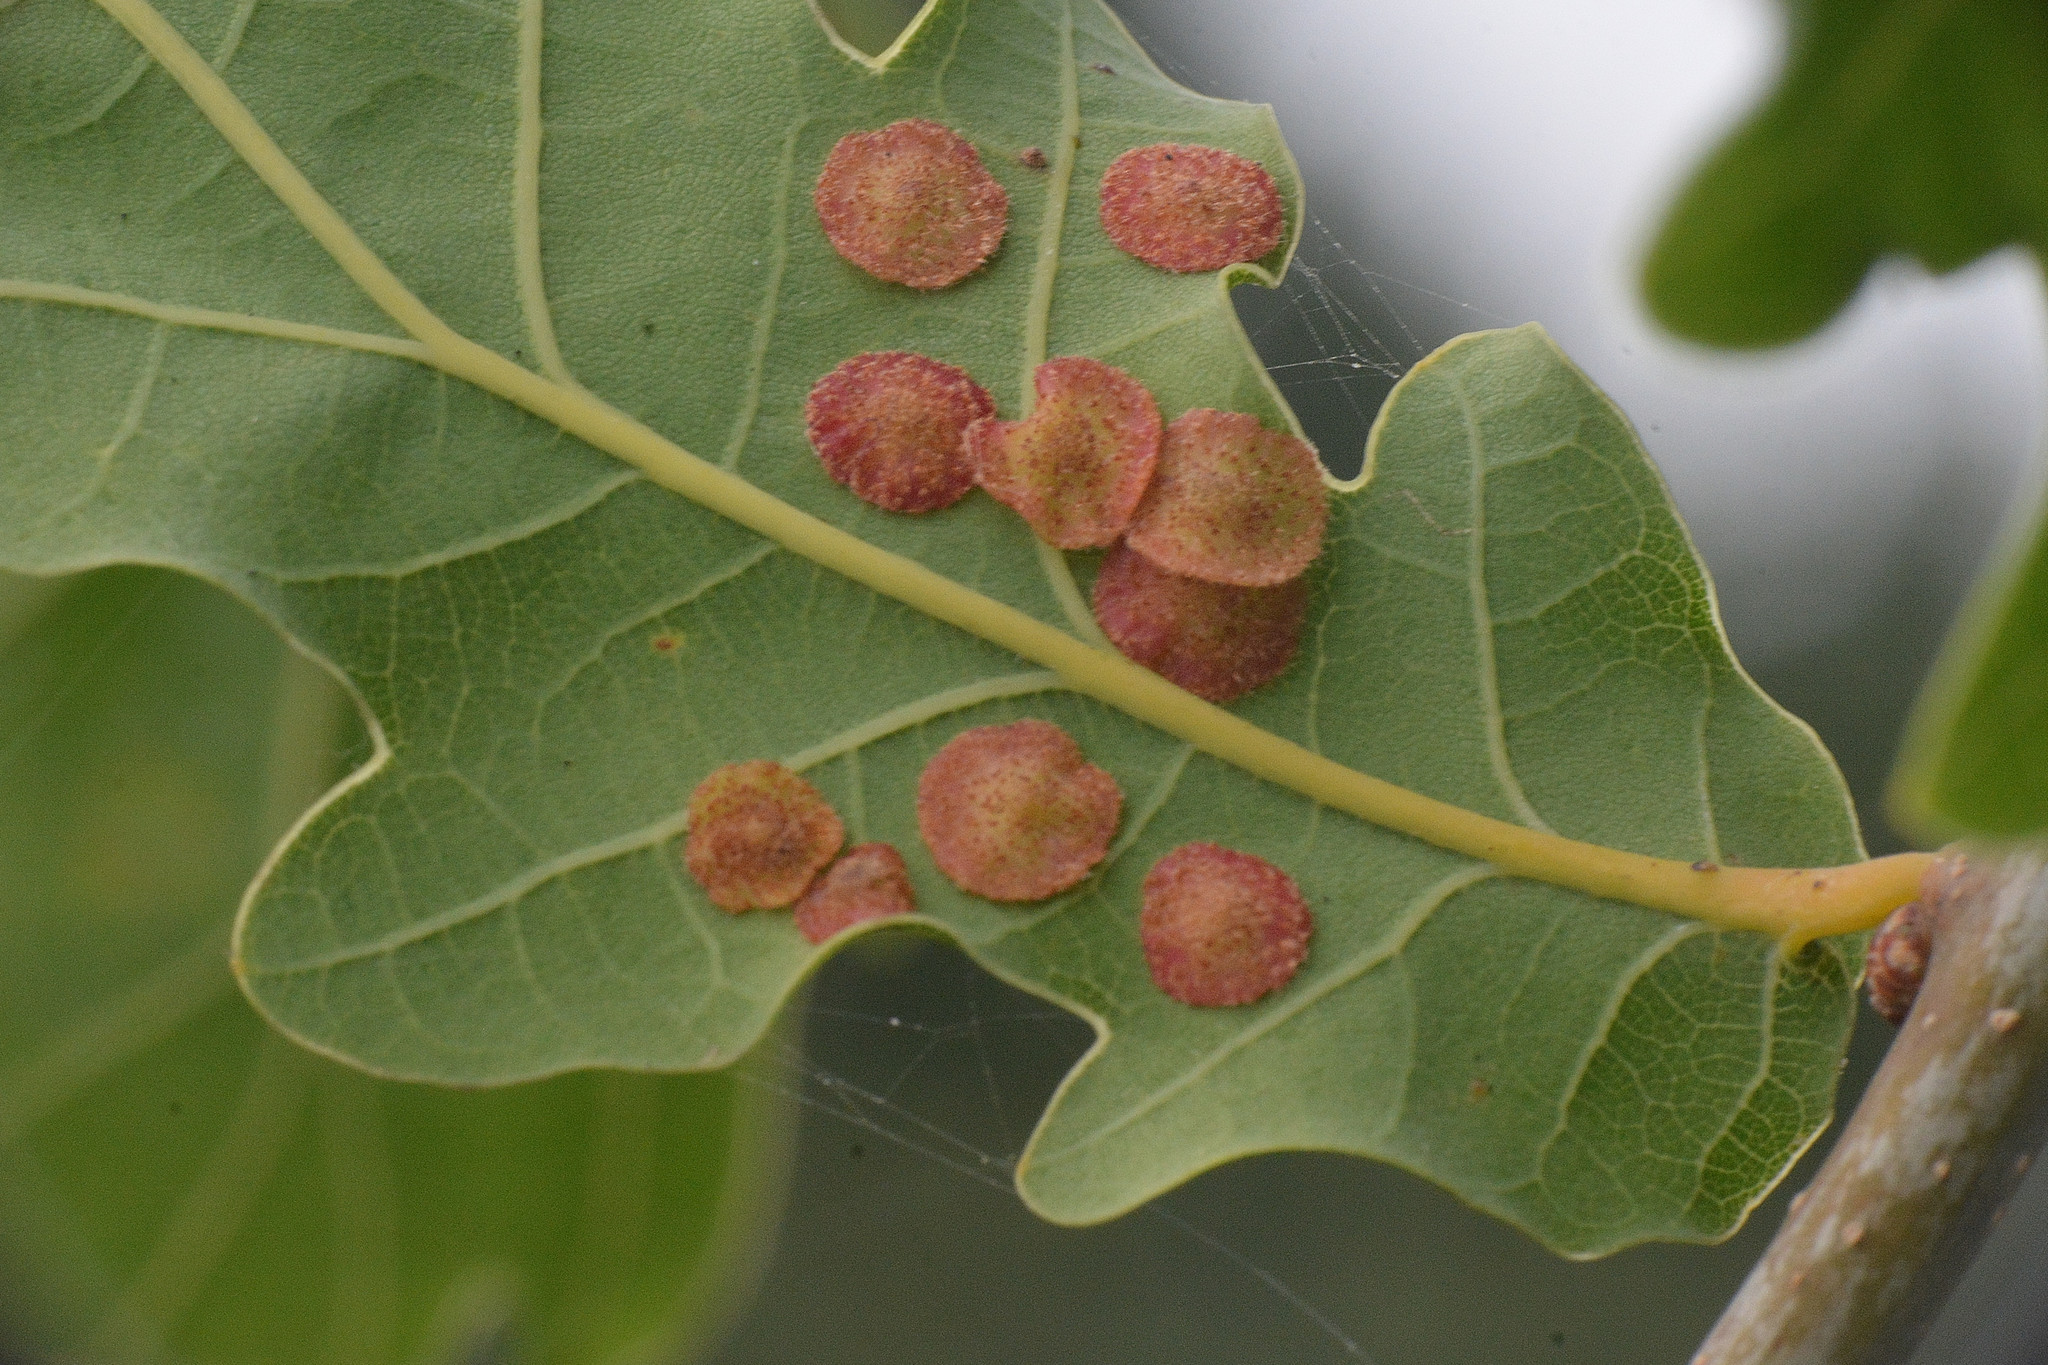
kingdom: Animalia
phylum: Arthropoda
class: Insecta
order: Hymenoptera
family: Cynipidae
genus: Neuroterus
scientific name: Neuroterus quercusbaccarum
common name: Common spangle gall
